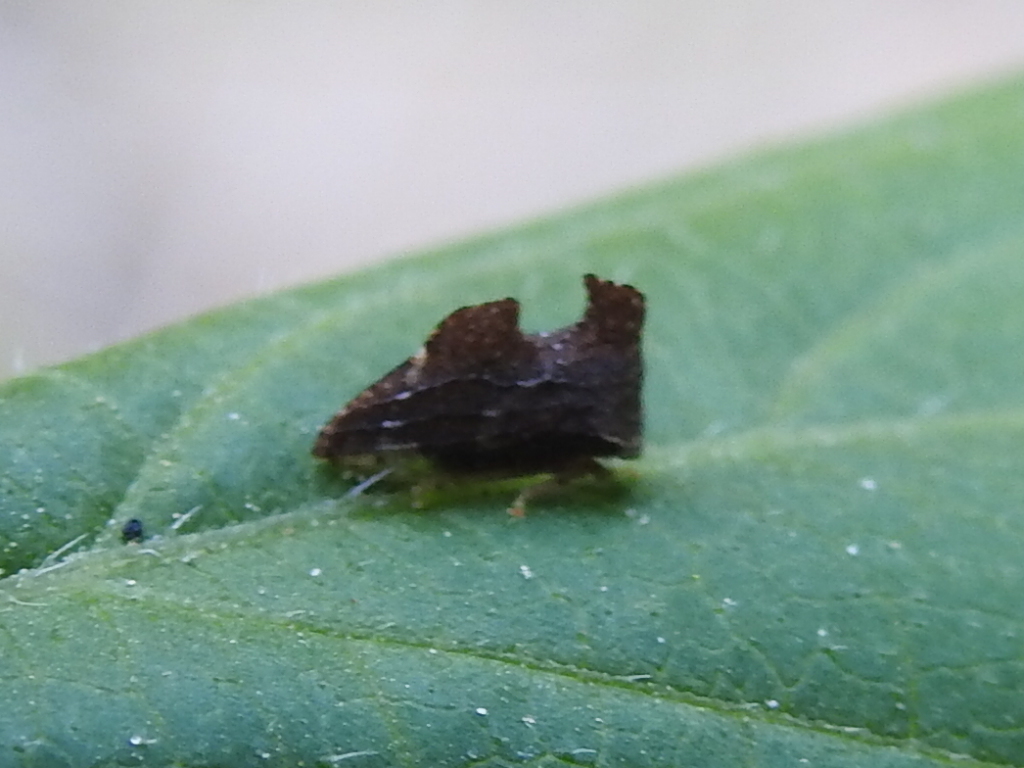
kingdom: Animalia
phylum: Arthropoda
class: Insecta
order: Hemiptera
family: Membracidae
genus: Entylia
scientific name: Entylia carinata
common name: Keeled treehopper
